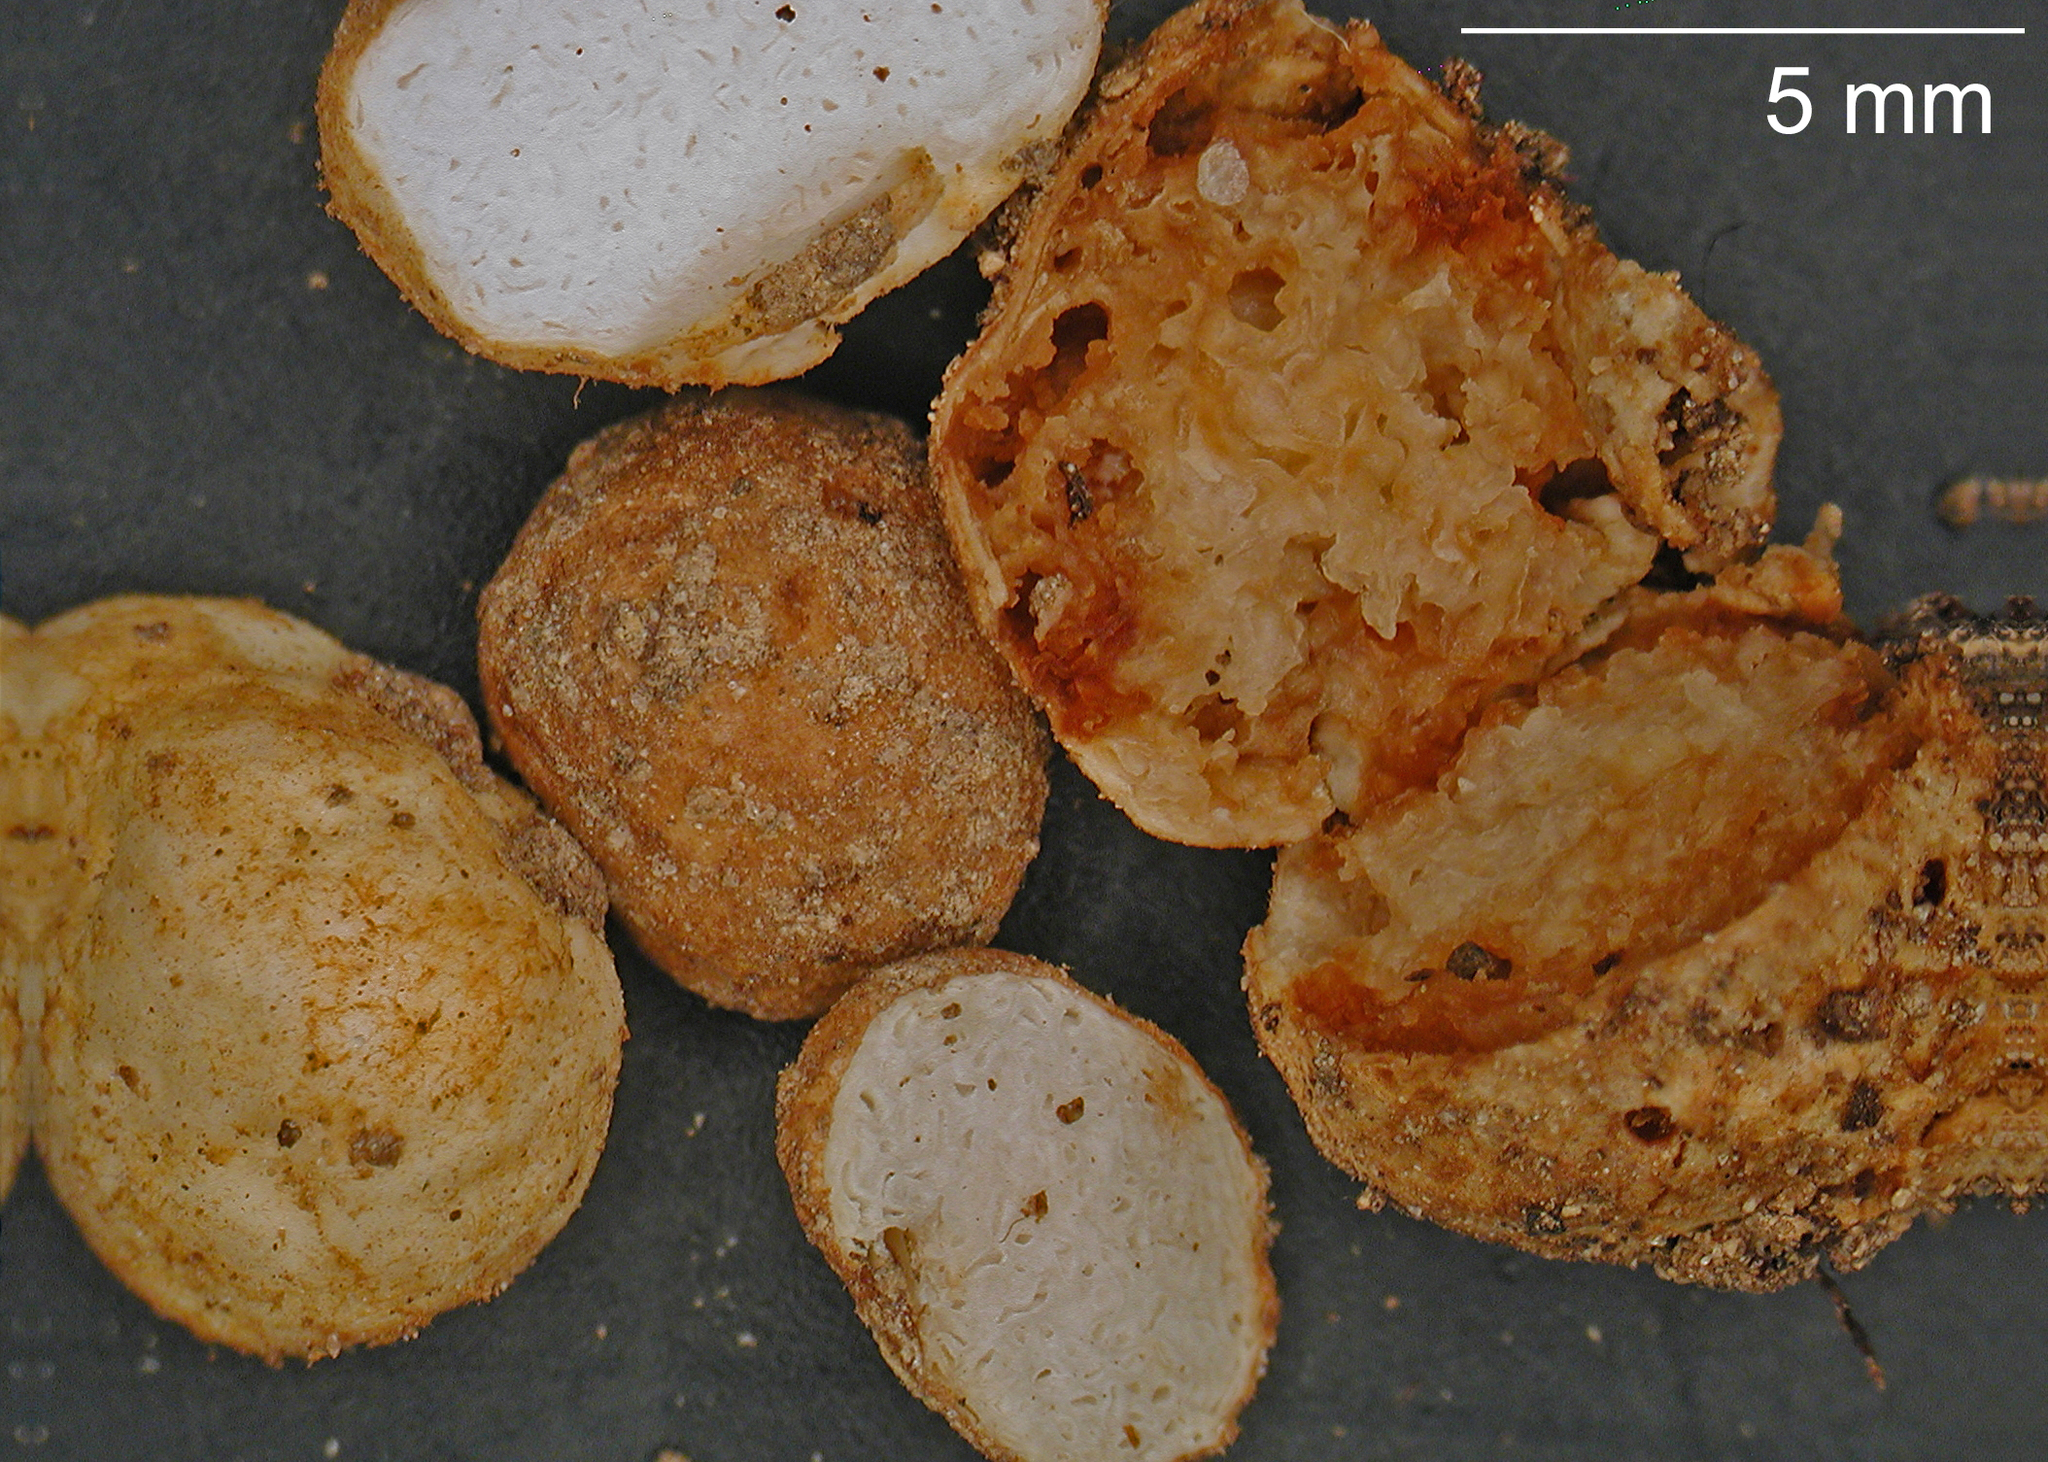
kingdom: Fungi
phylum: Basidiomycota
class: Agaricomycetes
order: Agaricales
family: Hymenogastraceae
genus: Hymenogaster
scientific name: Hymenogaster tasmanicus
